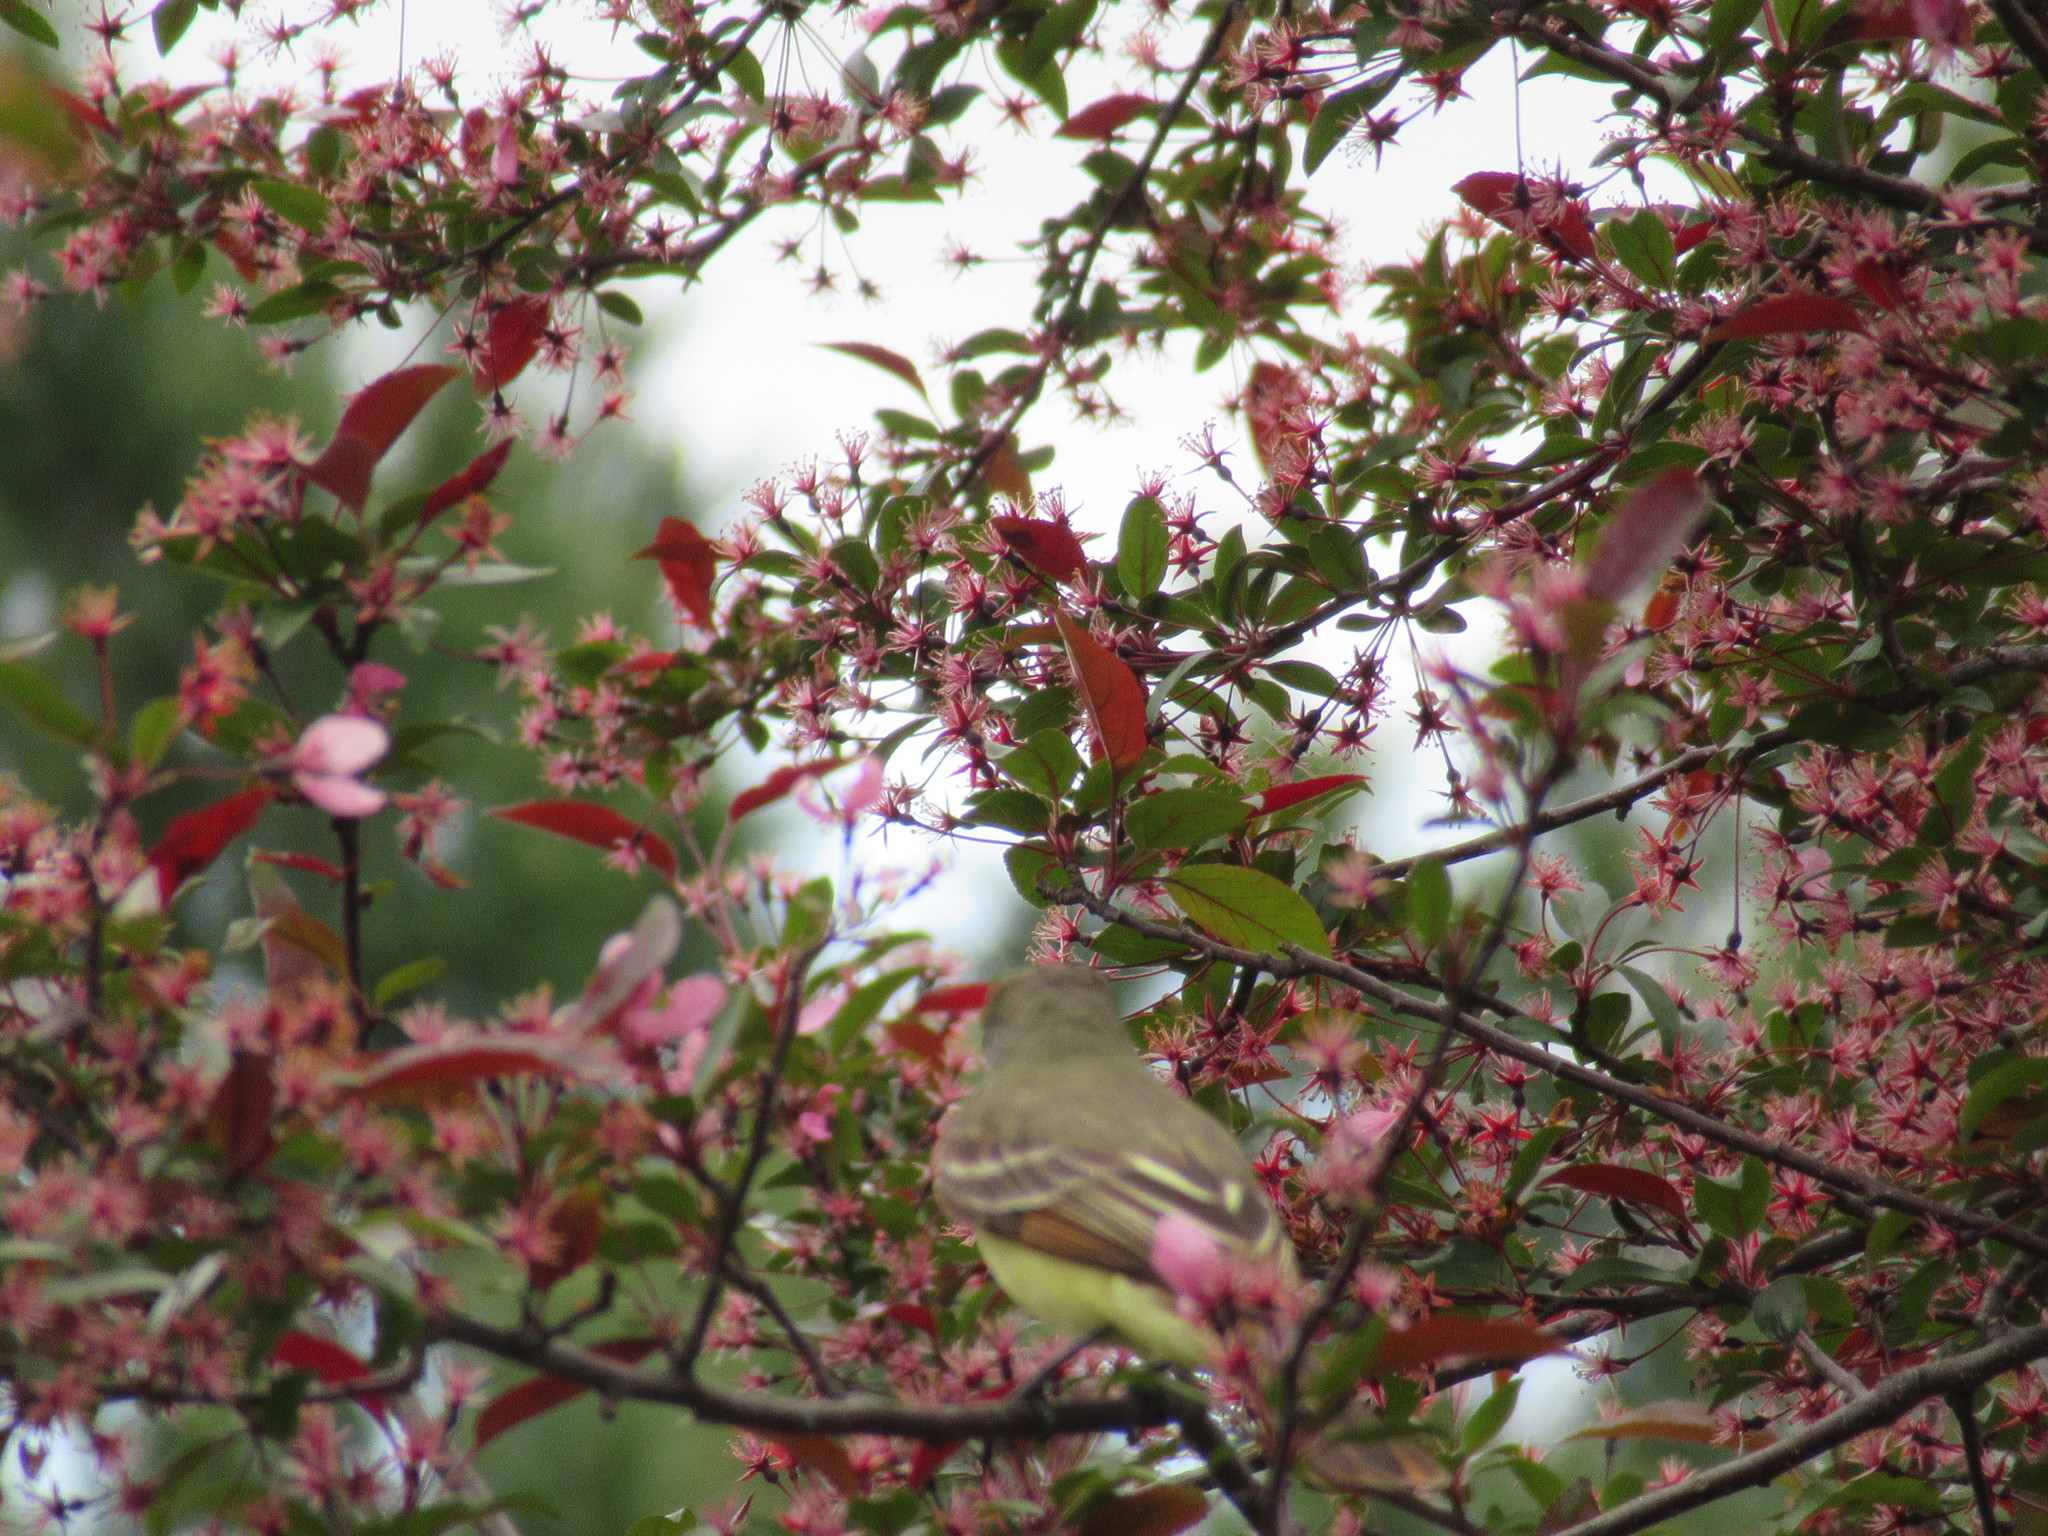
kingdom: Animalia
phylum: Chordata
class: Aves
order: Passeriformes
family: Tyrannidae
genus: Myiarchus
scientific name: Myiarchus crinitus
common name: Great crested flycatcher
